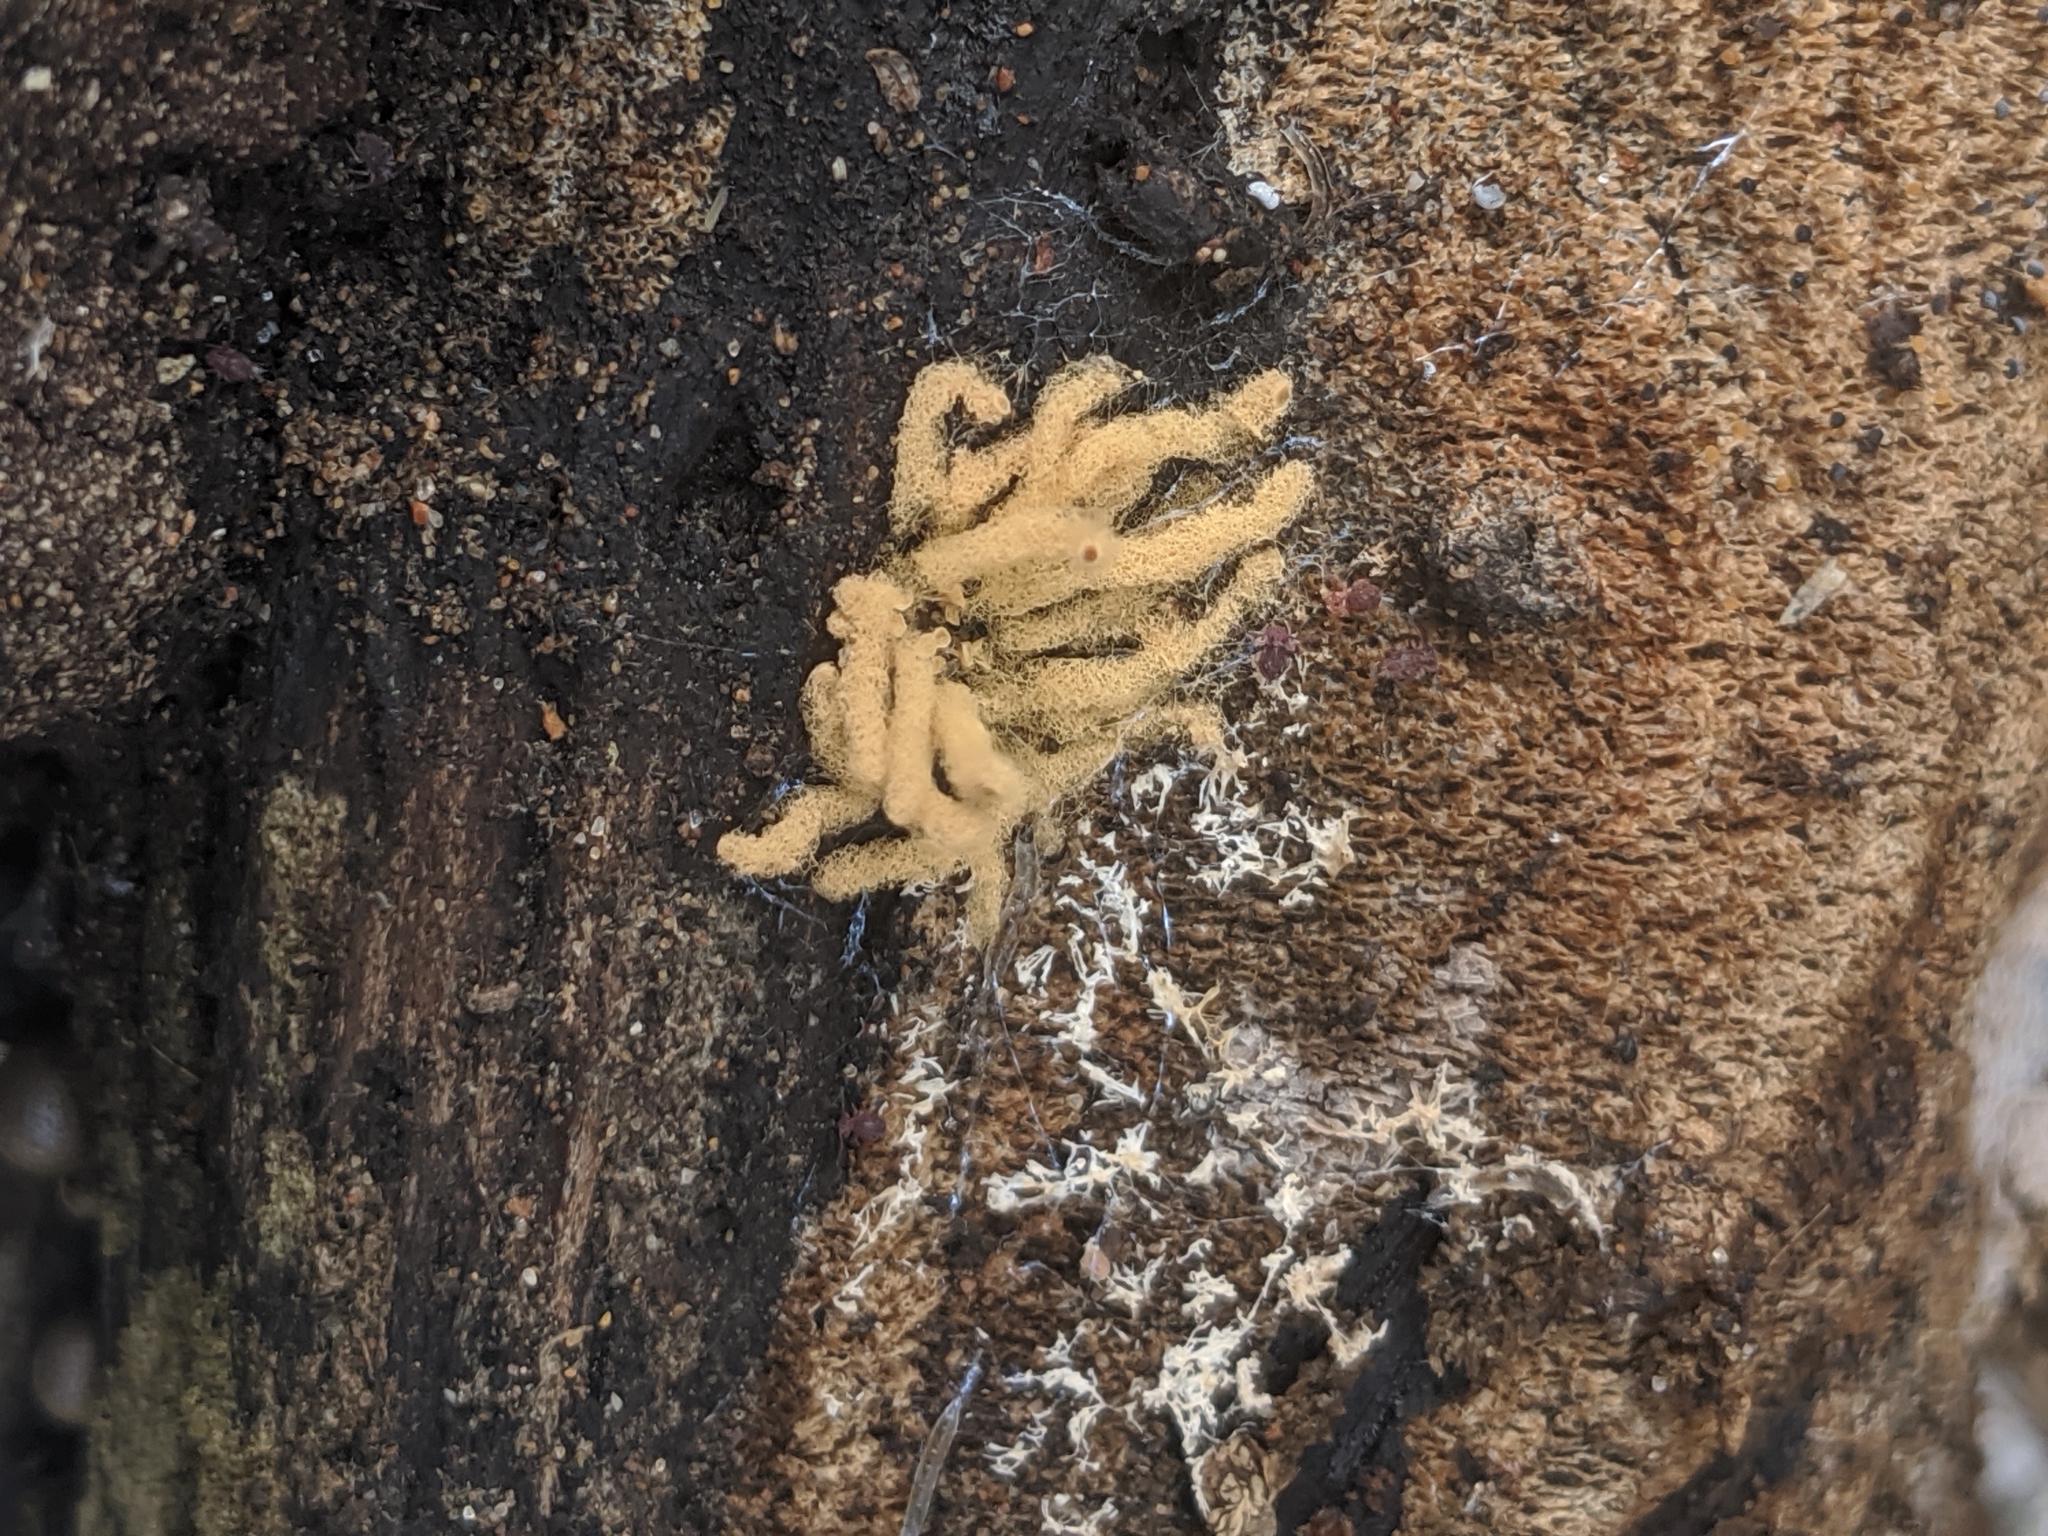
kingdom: Protozoa
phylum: Mycetozoa
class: Myxomycetes
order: Trichiales
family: Arcyriaceae
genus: Arcyria
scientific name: Arcyria obvelata
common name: Yellow carnival candy slime
